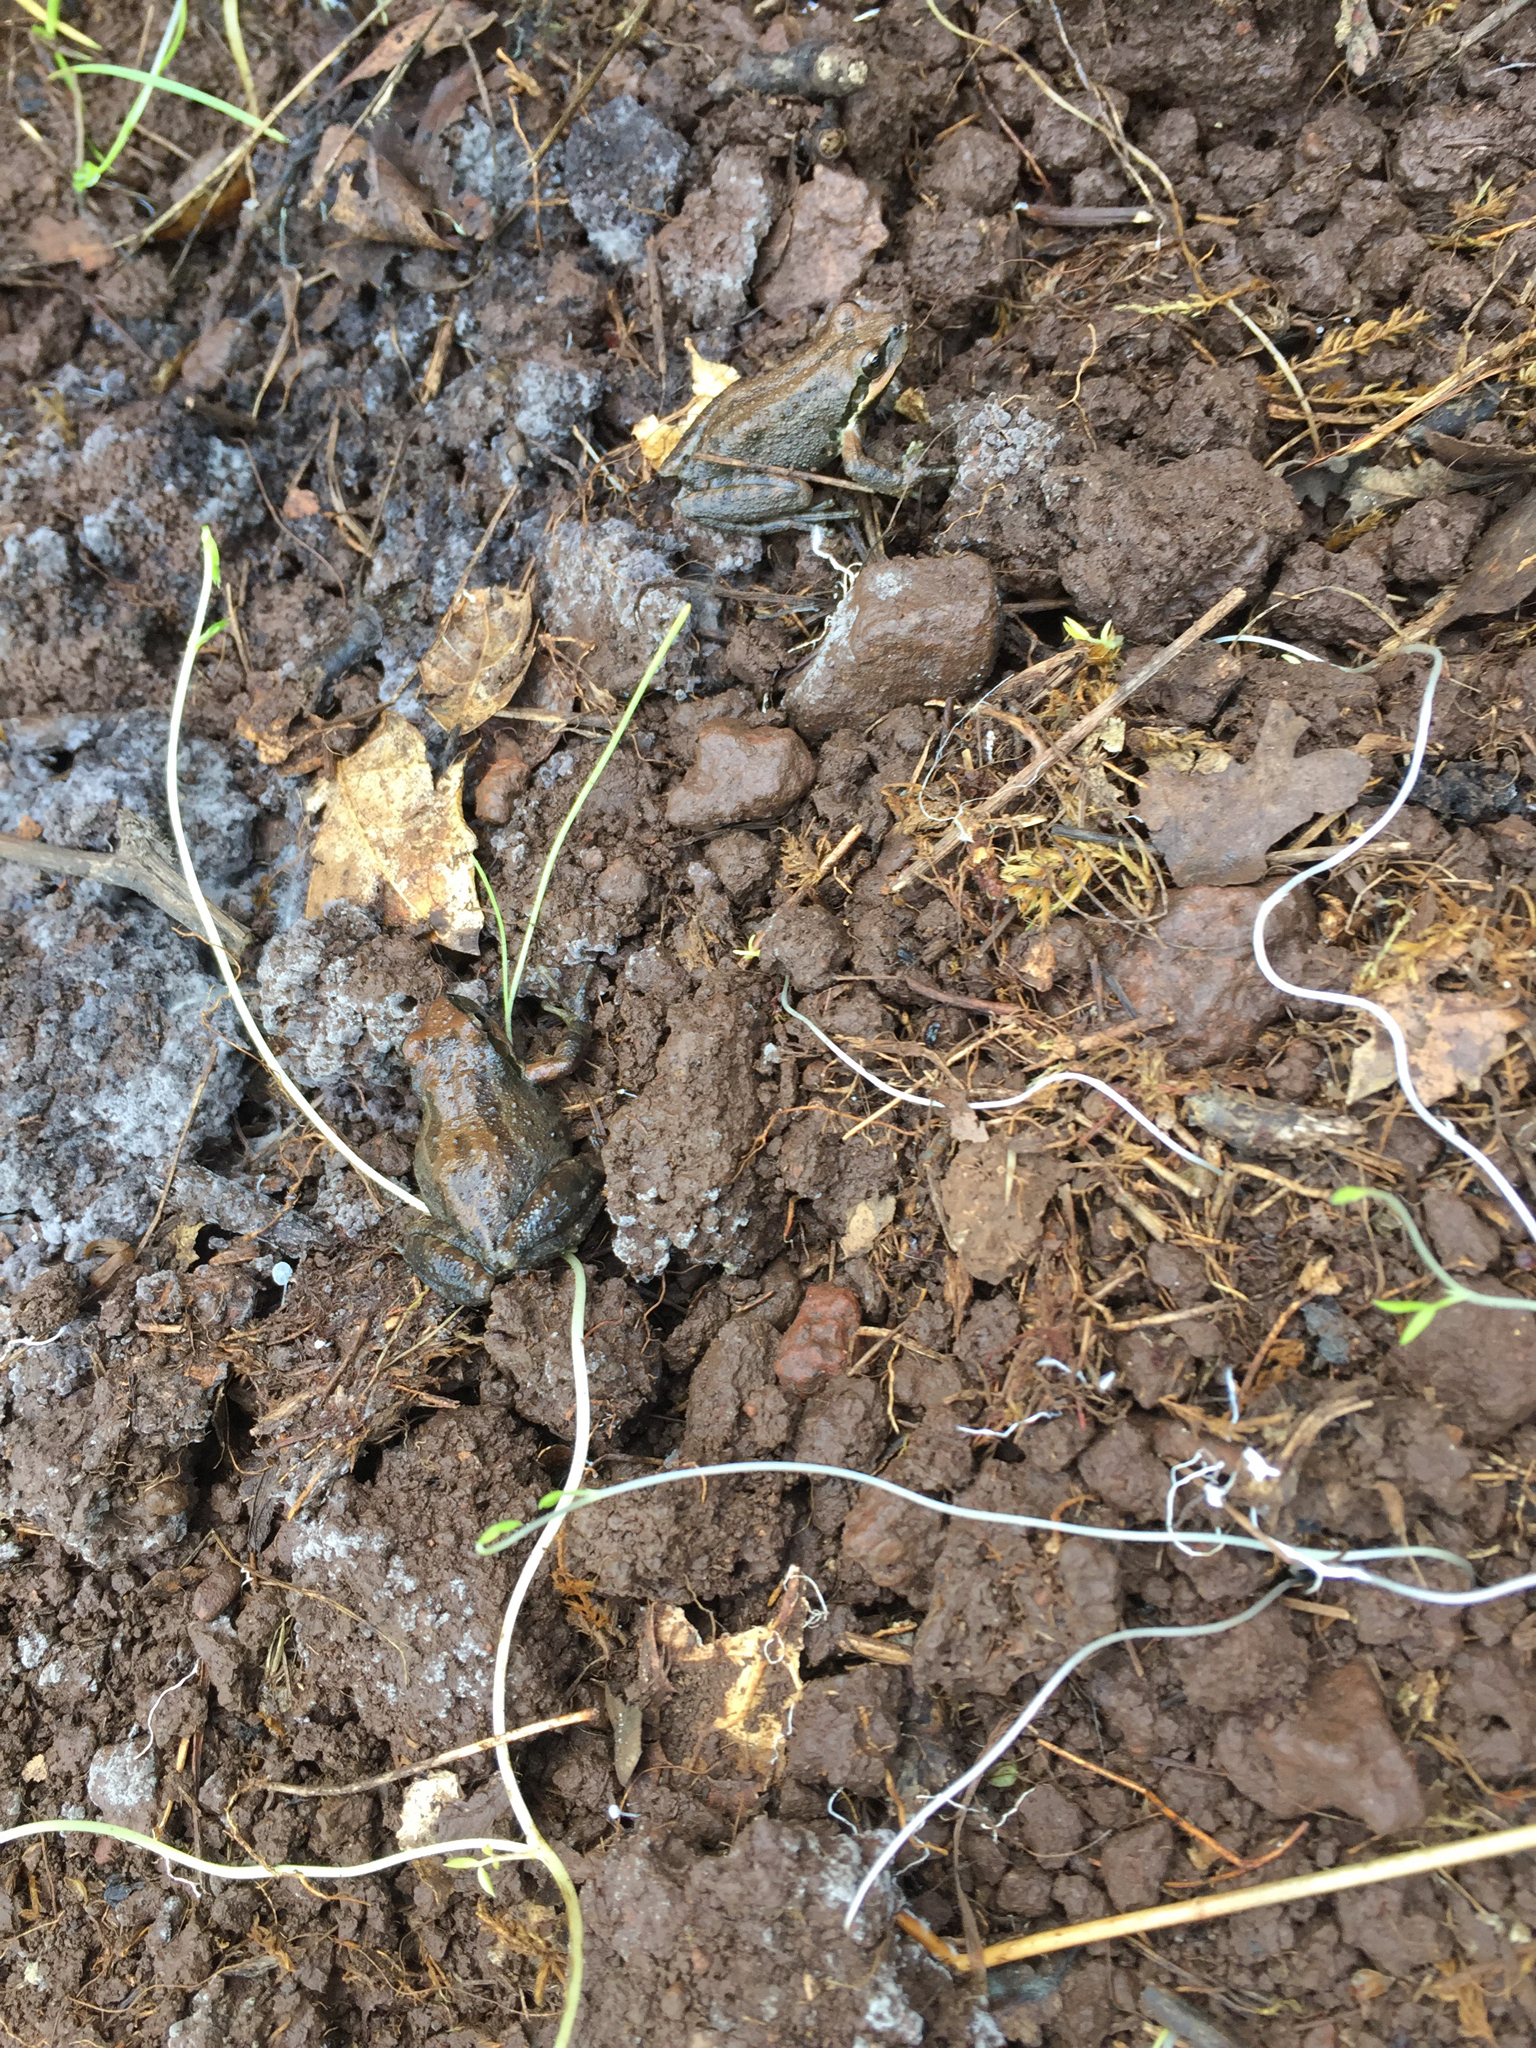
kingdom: Animalia
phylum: Chordata
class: Amphibia
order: Anura
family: Hylidae
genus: Pseudacris
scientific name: Pseudacris regilla
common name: Pacific chorus frog
